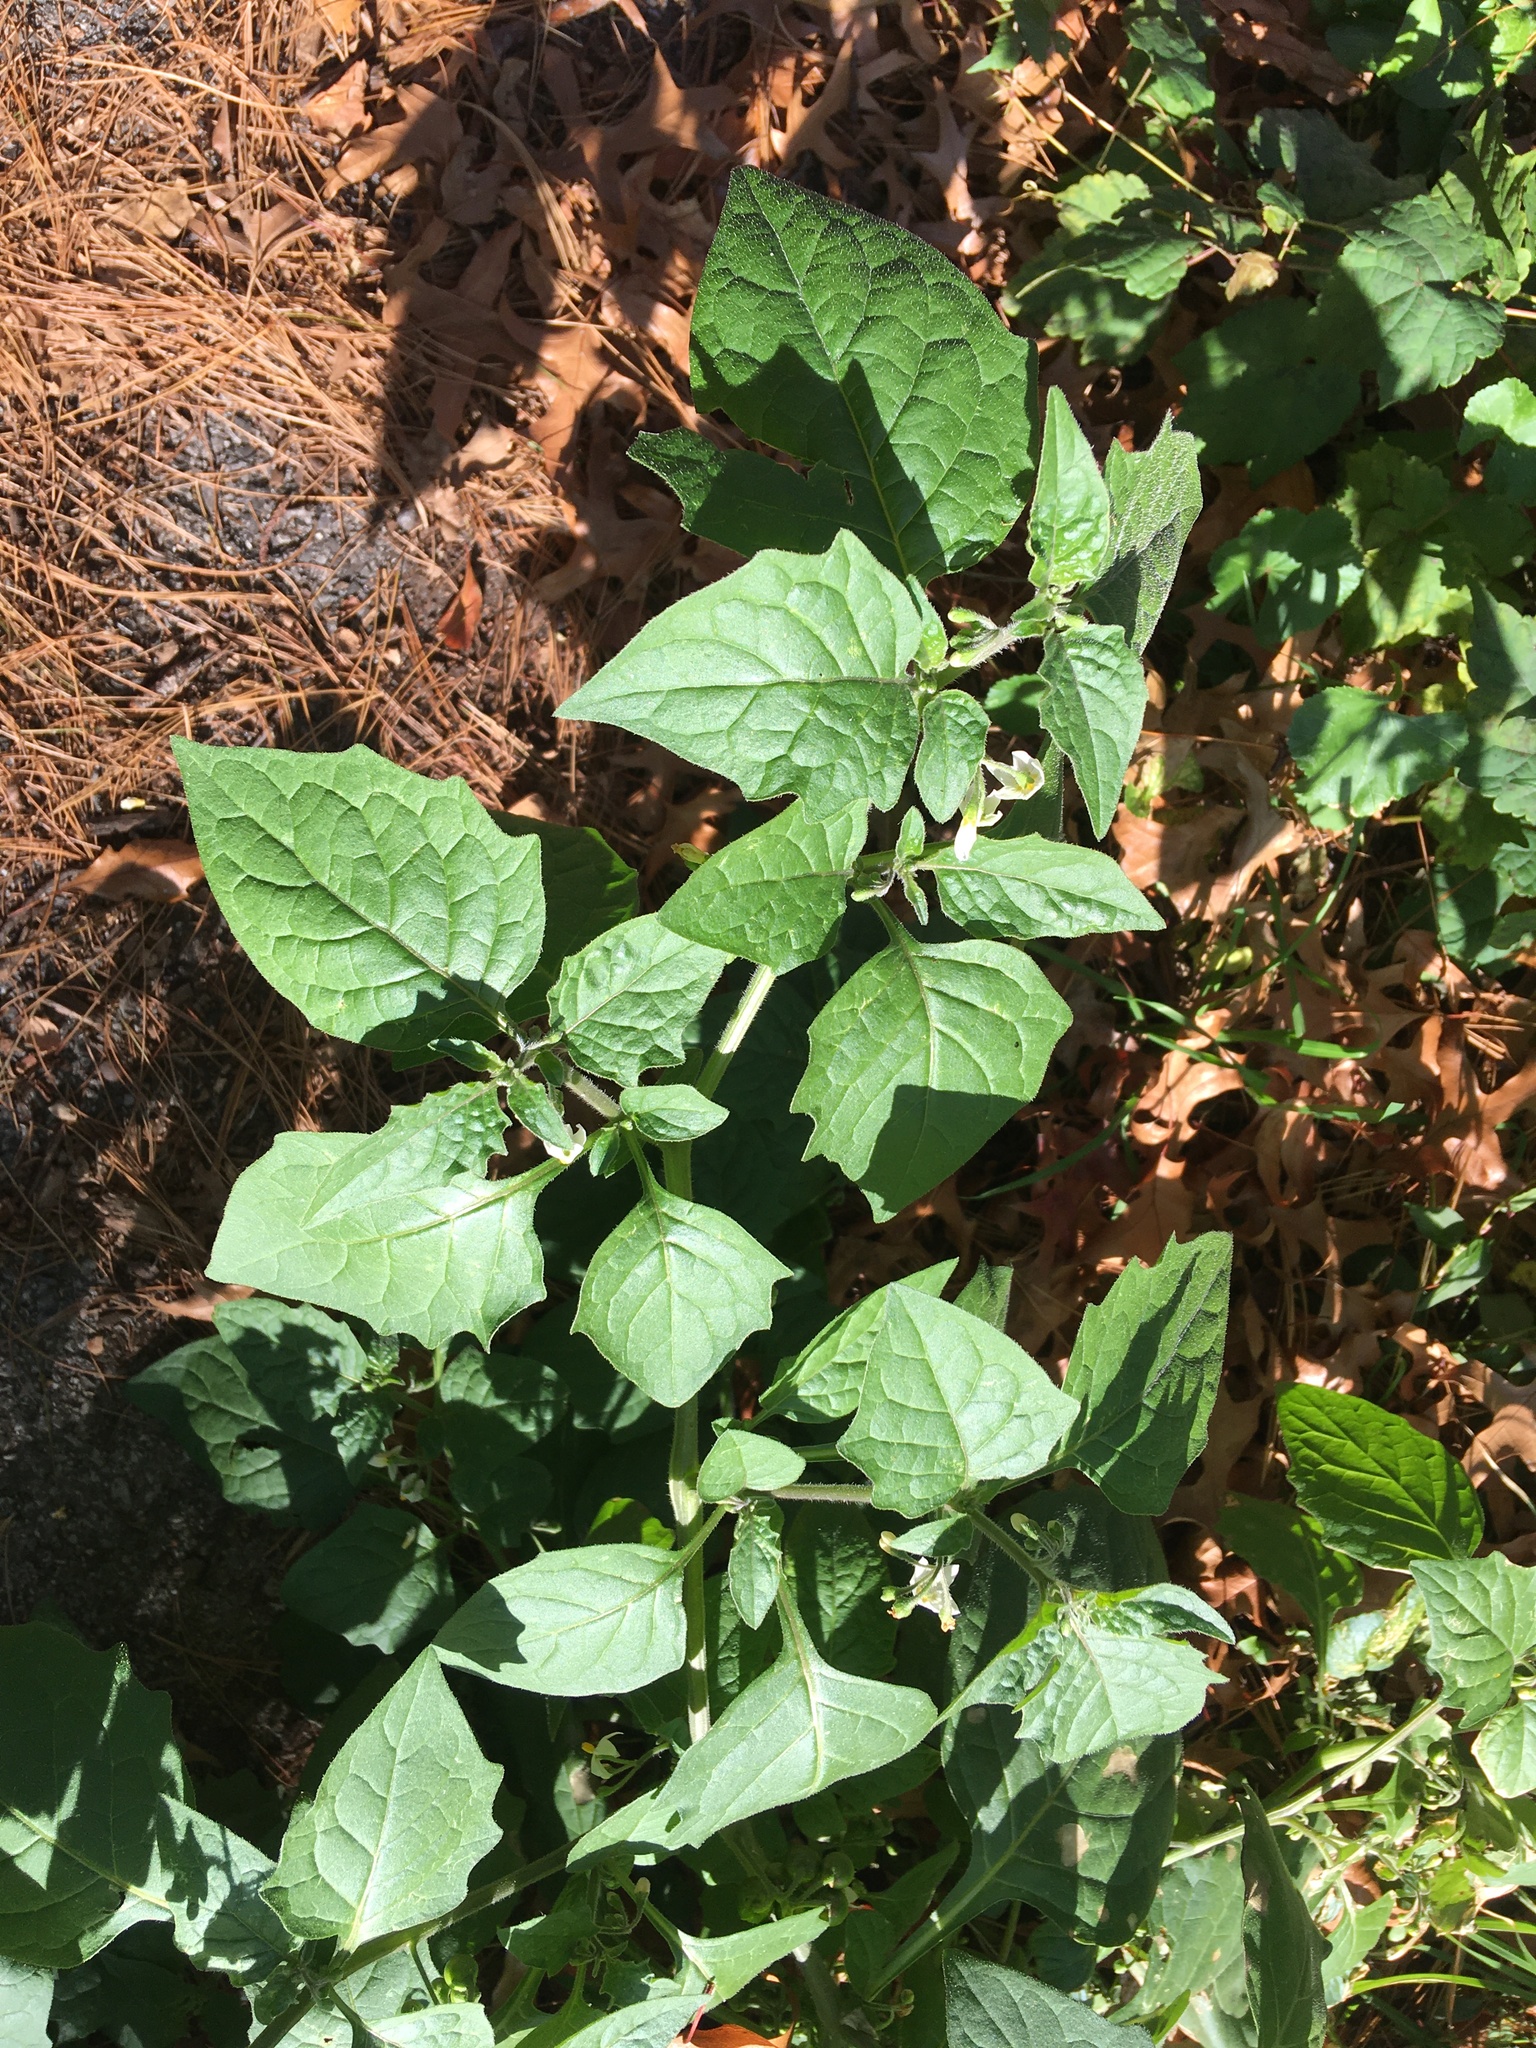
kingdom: Plantae
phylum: Tracheophyta
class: Magnoliopsida
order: Solanales
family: Solanaceae
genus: Solanum
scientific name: Solanum nigrum
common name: Black nightshade
